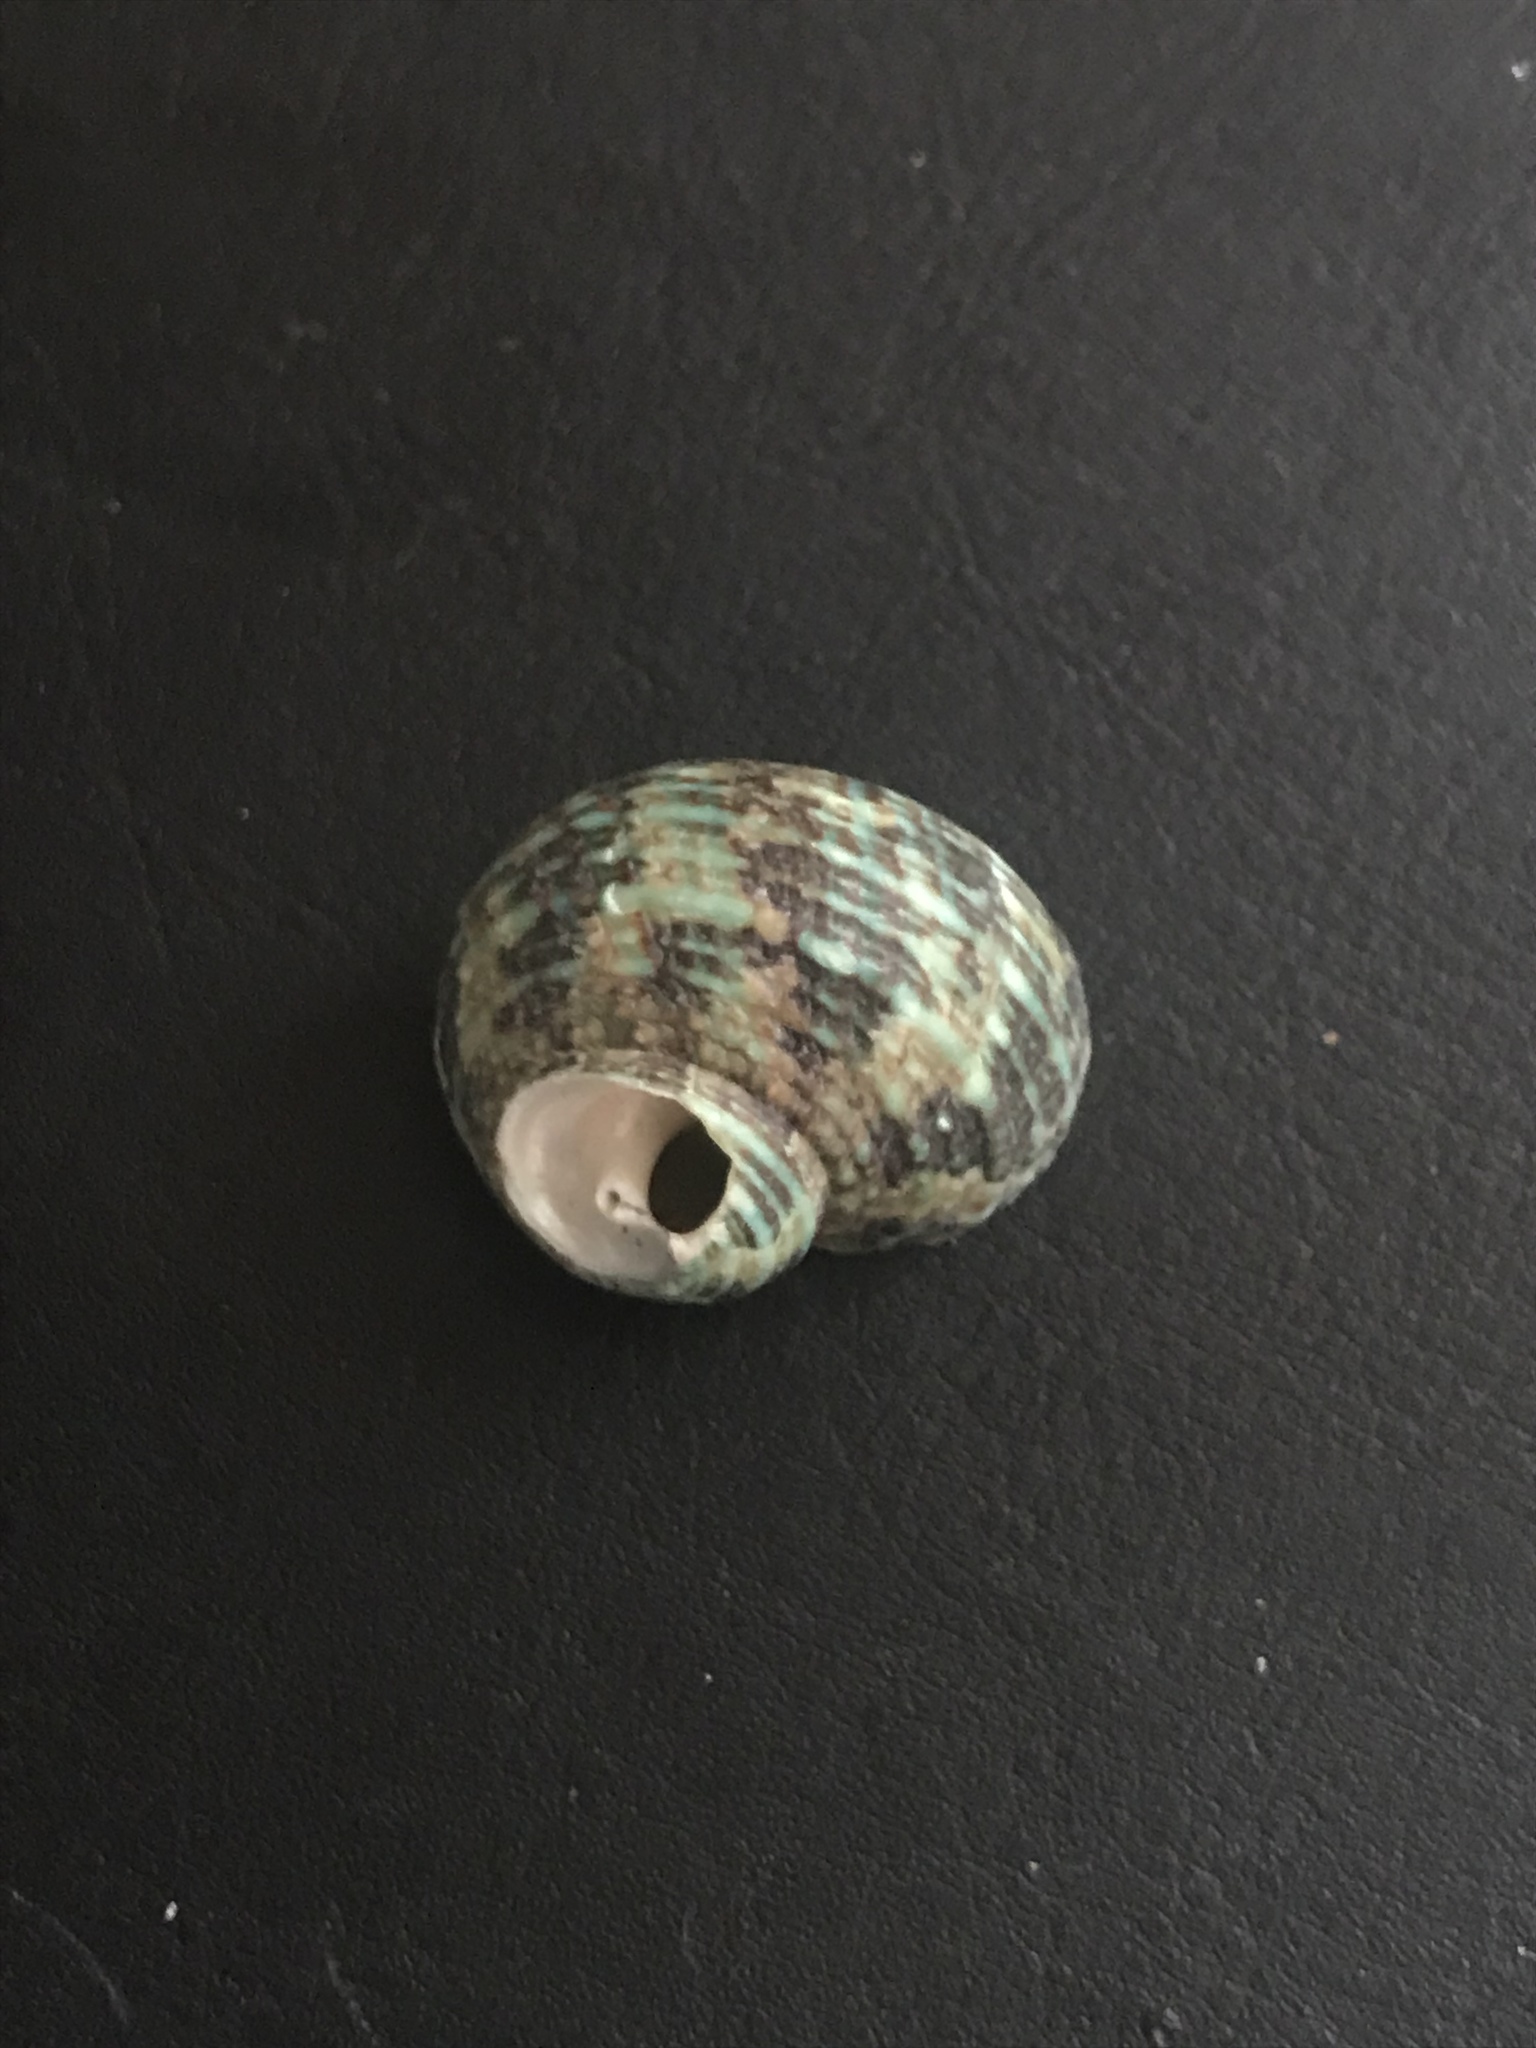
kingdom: Animalia
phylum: Mollusca
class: Gastropoda
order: Trochida
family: Turbinidae
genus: Turbo
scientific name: Turbo intercostalis
